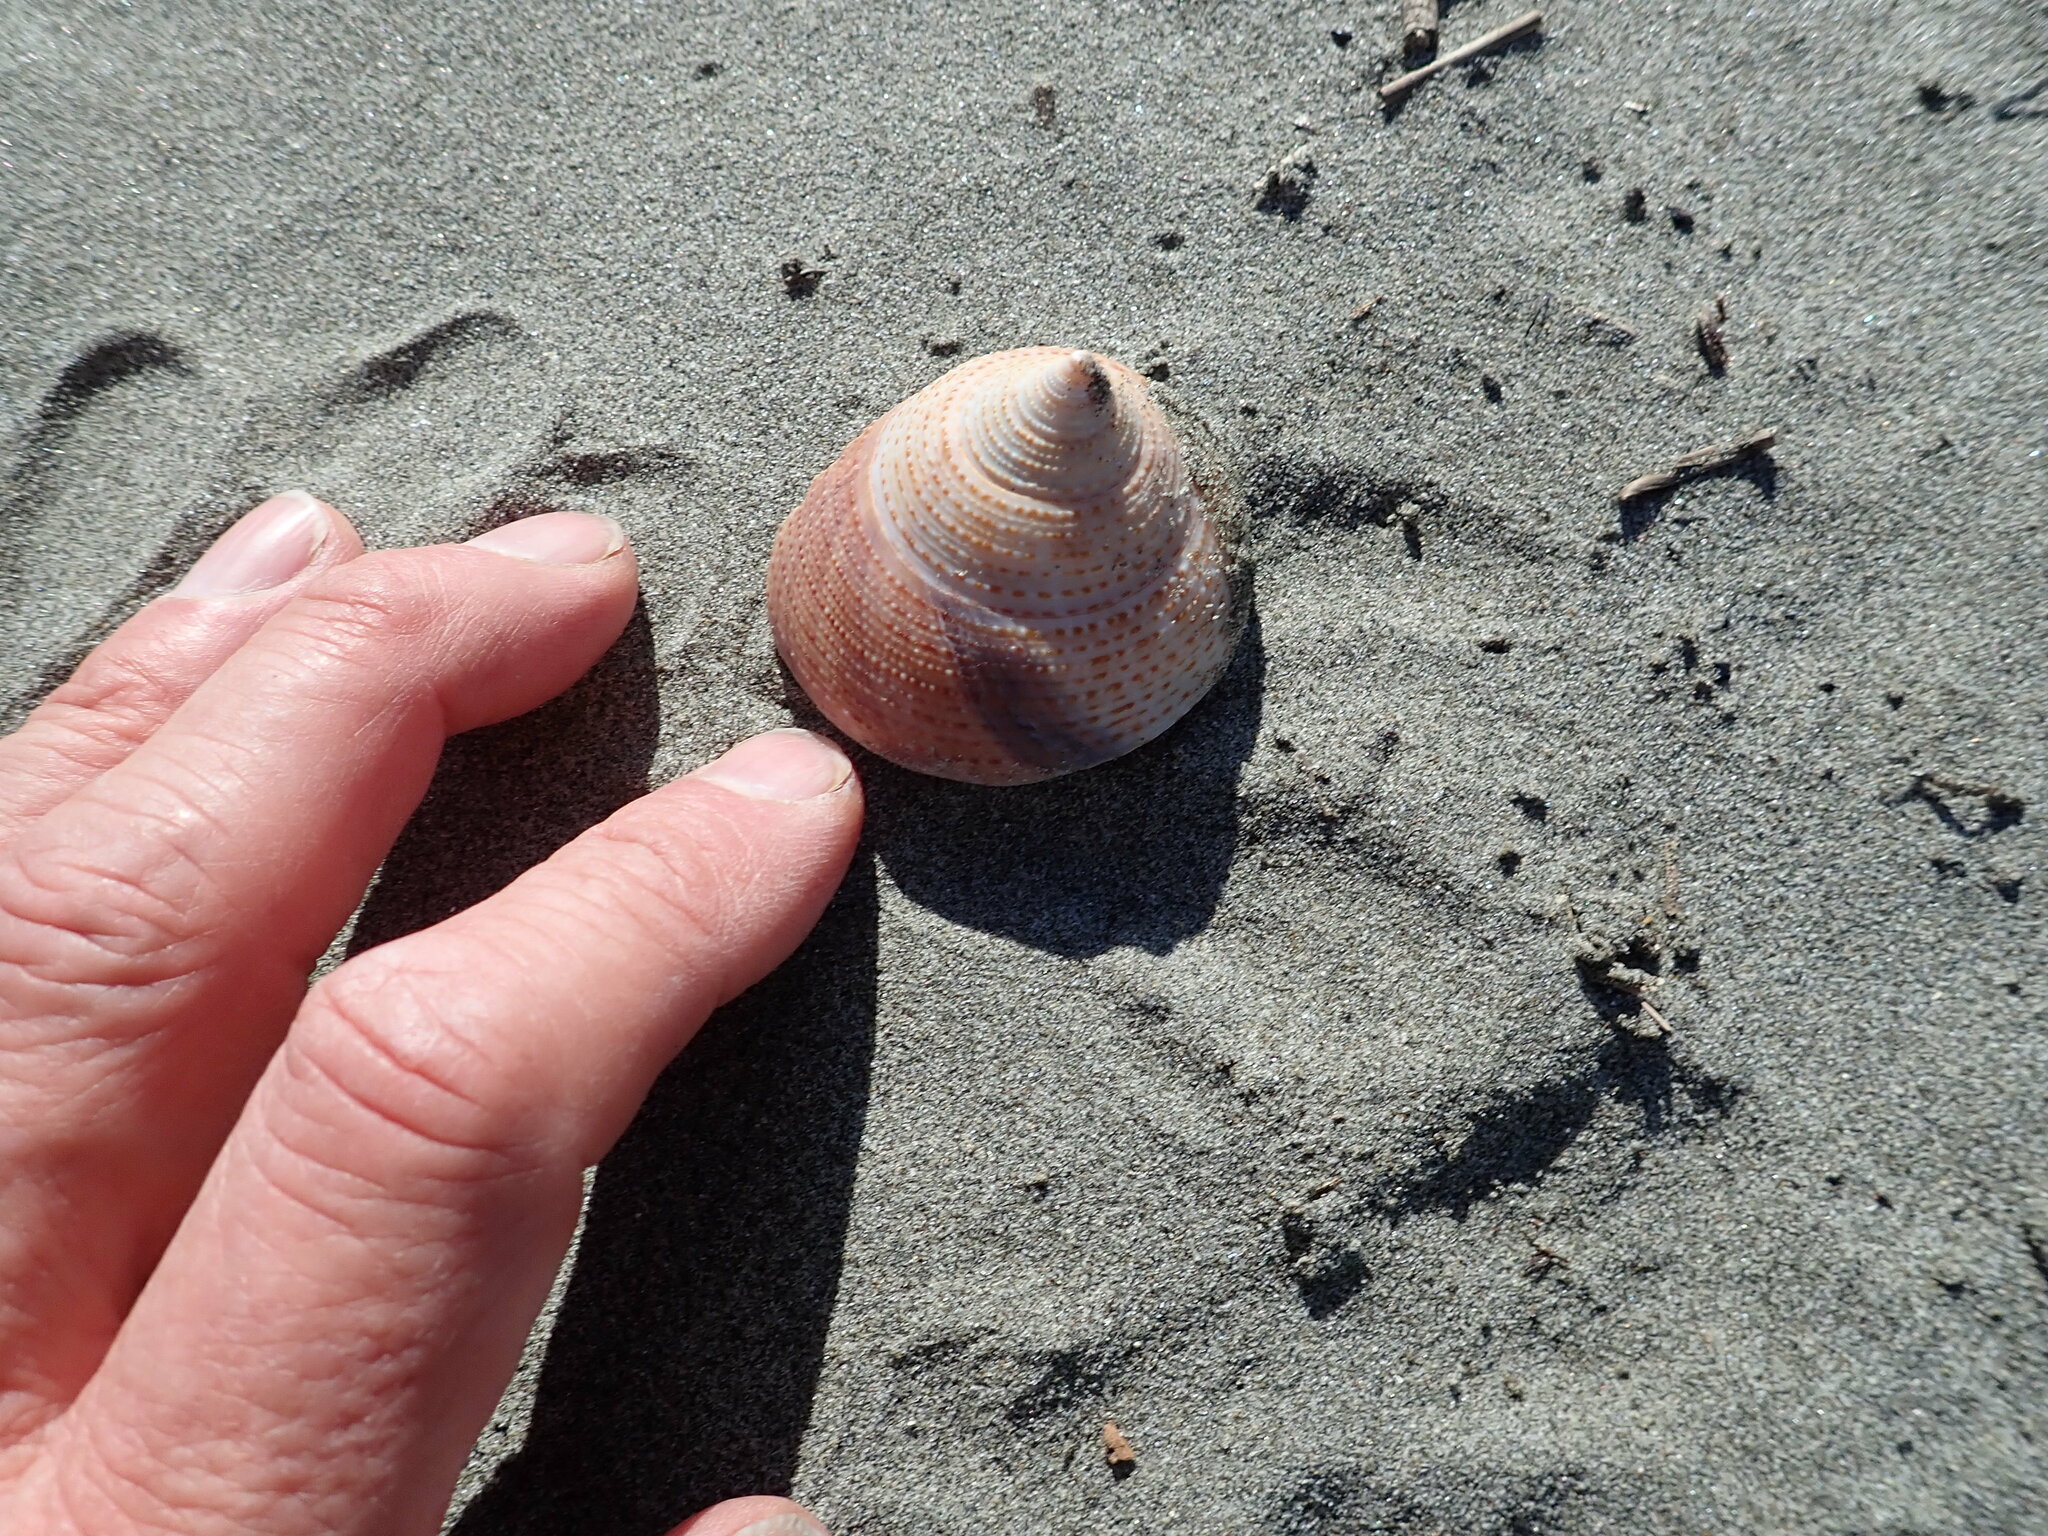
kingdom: Animalia
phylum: Mollusca
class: Gastropoda
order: Trochida
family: Calliostomatidae
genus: Maurea
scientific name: Maurea selecta
